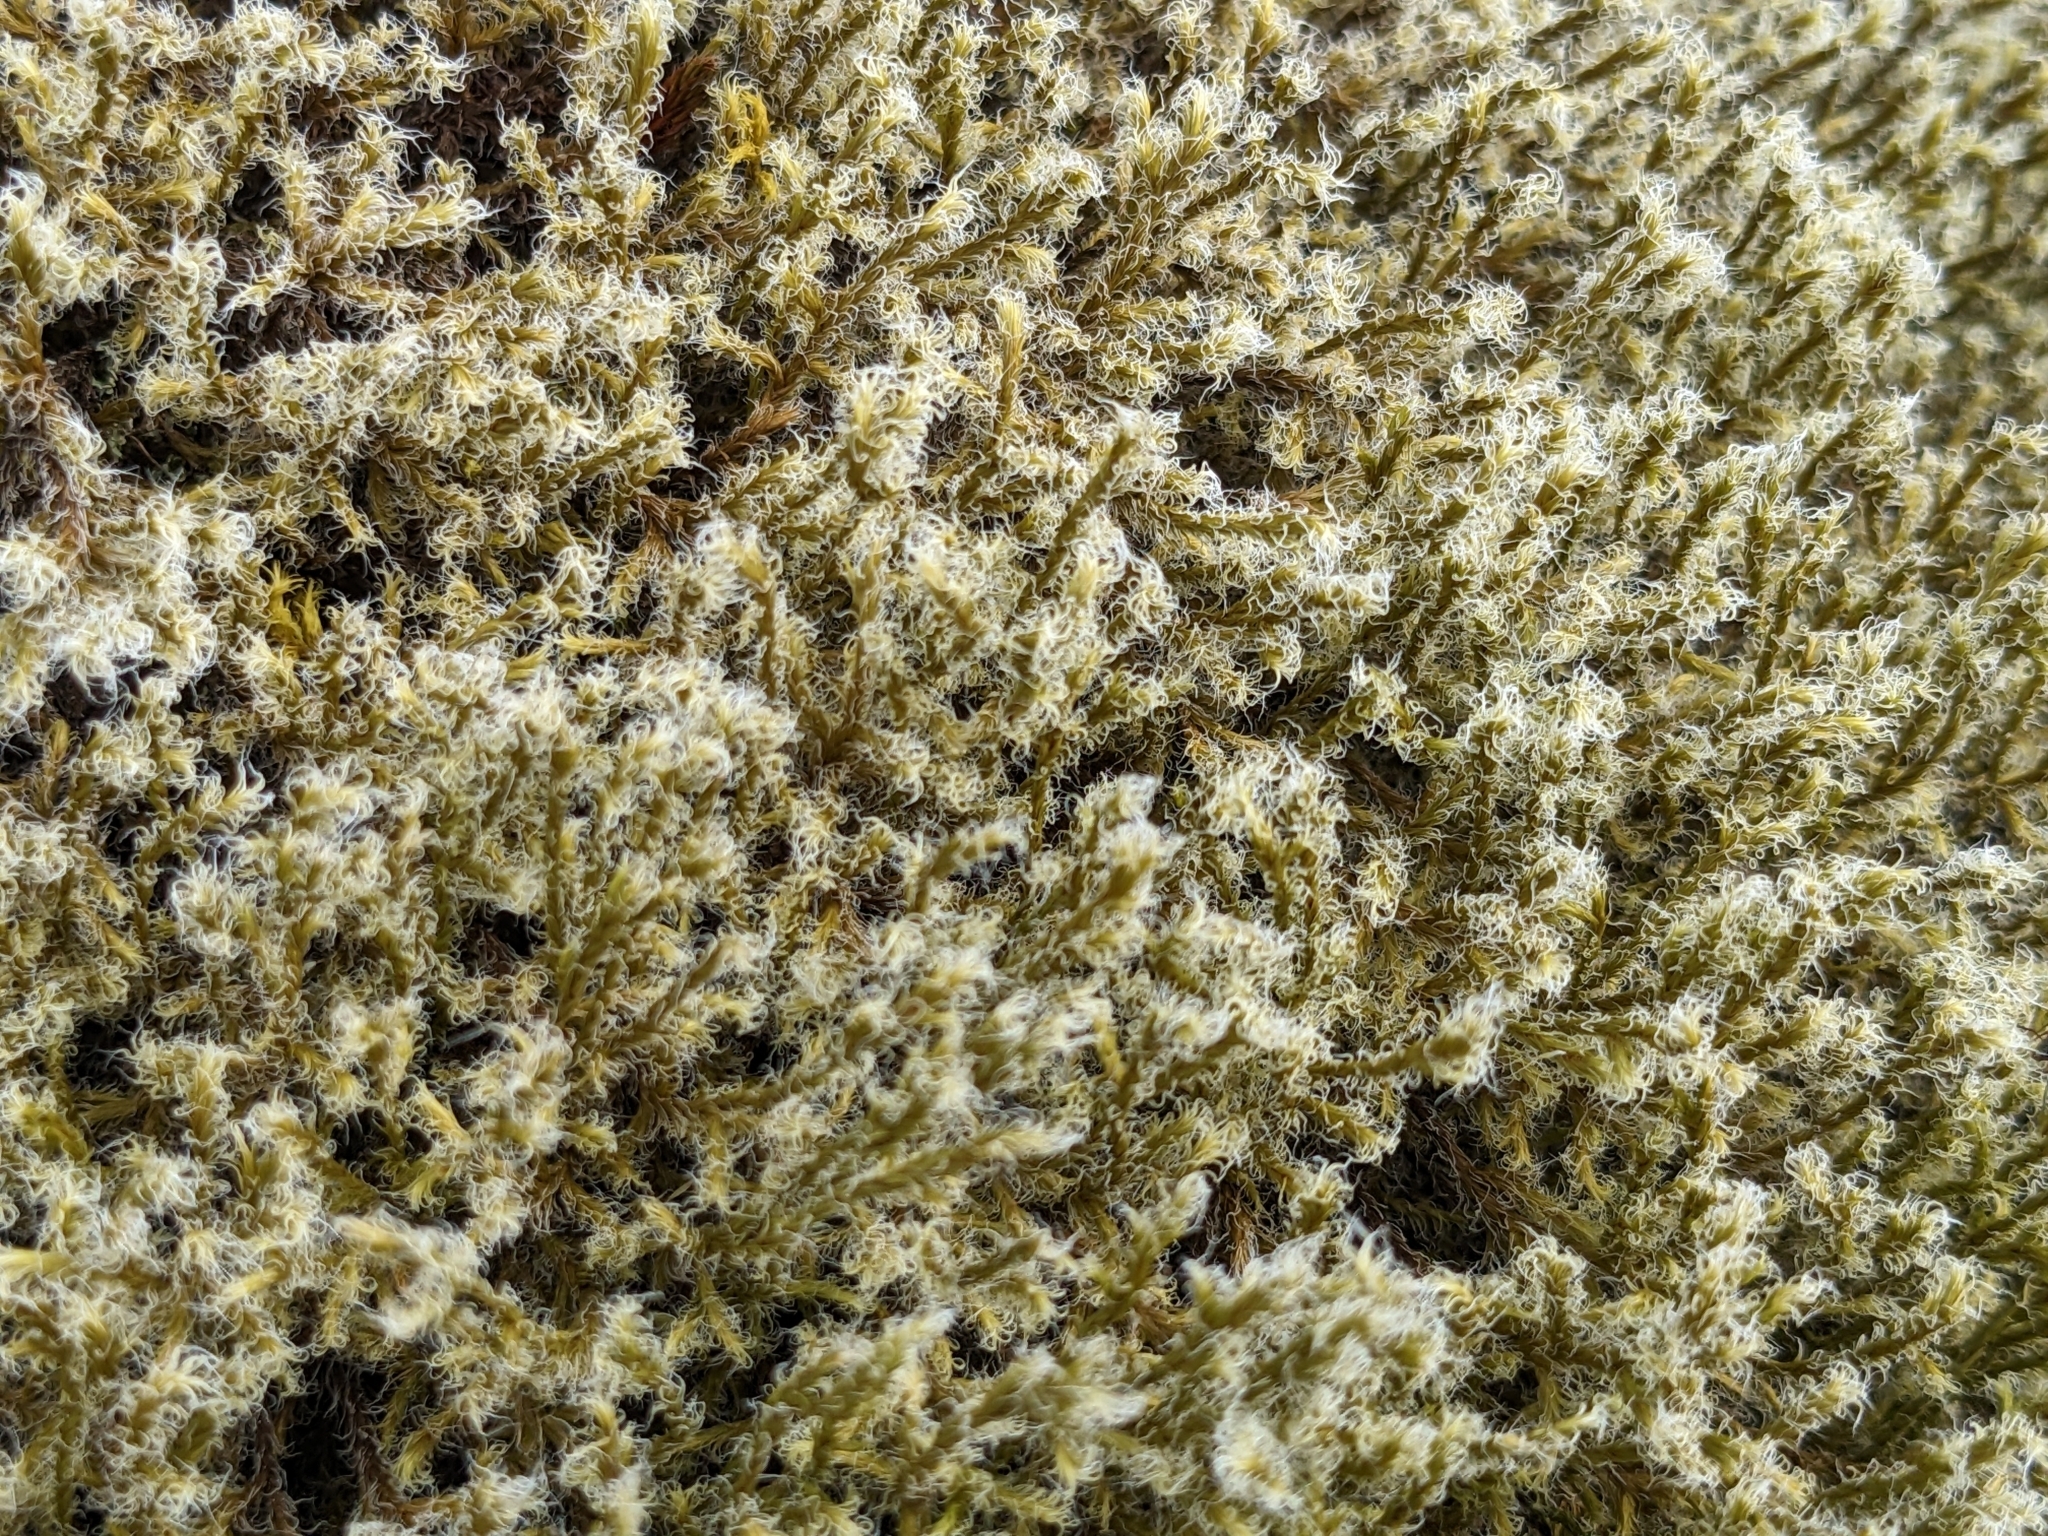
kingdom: Plantae
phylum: Bryophyta
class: Bryopsida
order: Grimmiales
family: Grimmiaceae
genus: Racomitrium
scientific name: Racomitrium lanuginosum
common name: Hoary rock moss
